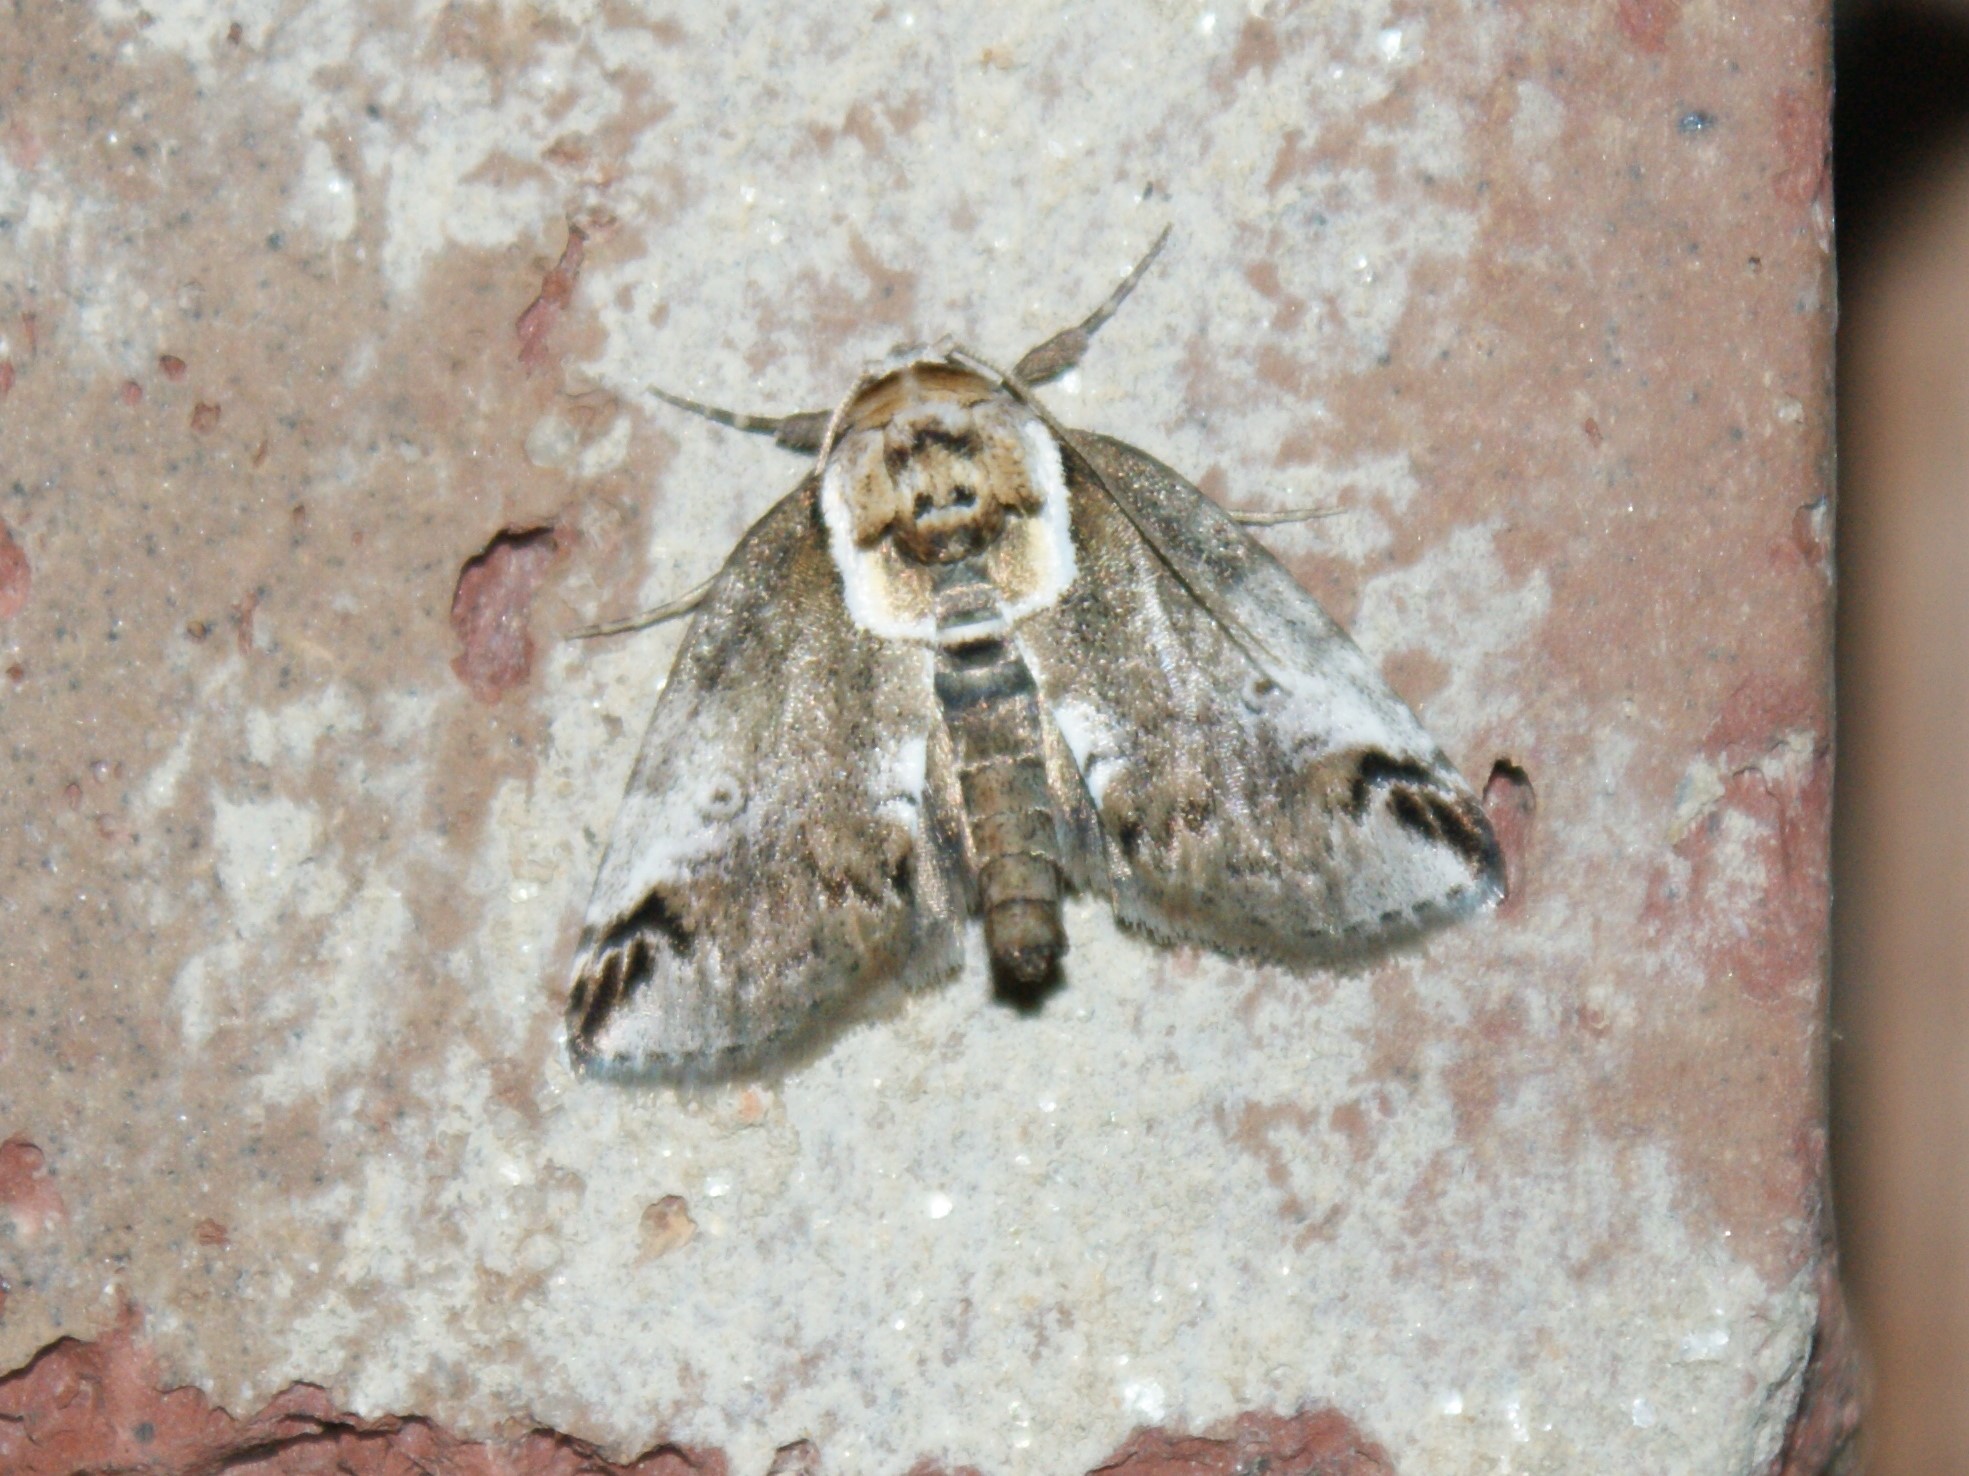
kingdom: Animalia
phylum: Arthropoda
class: Insecta
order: Lepidoptera
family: Nolidae
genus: Baileya
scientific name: Baileya ophthalmica
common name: Eyed baileya moth
